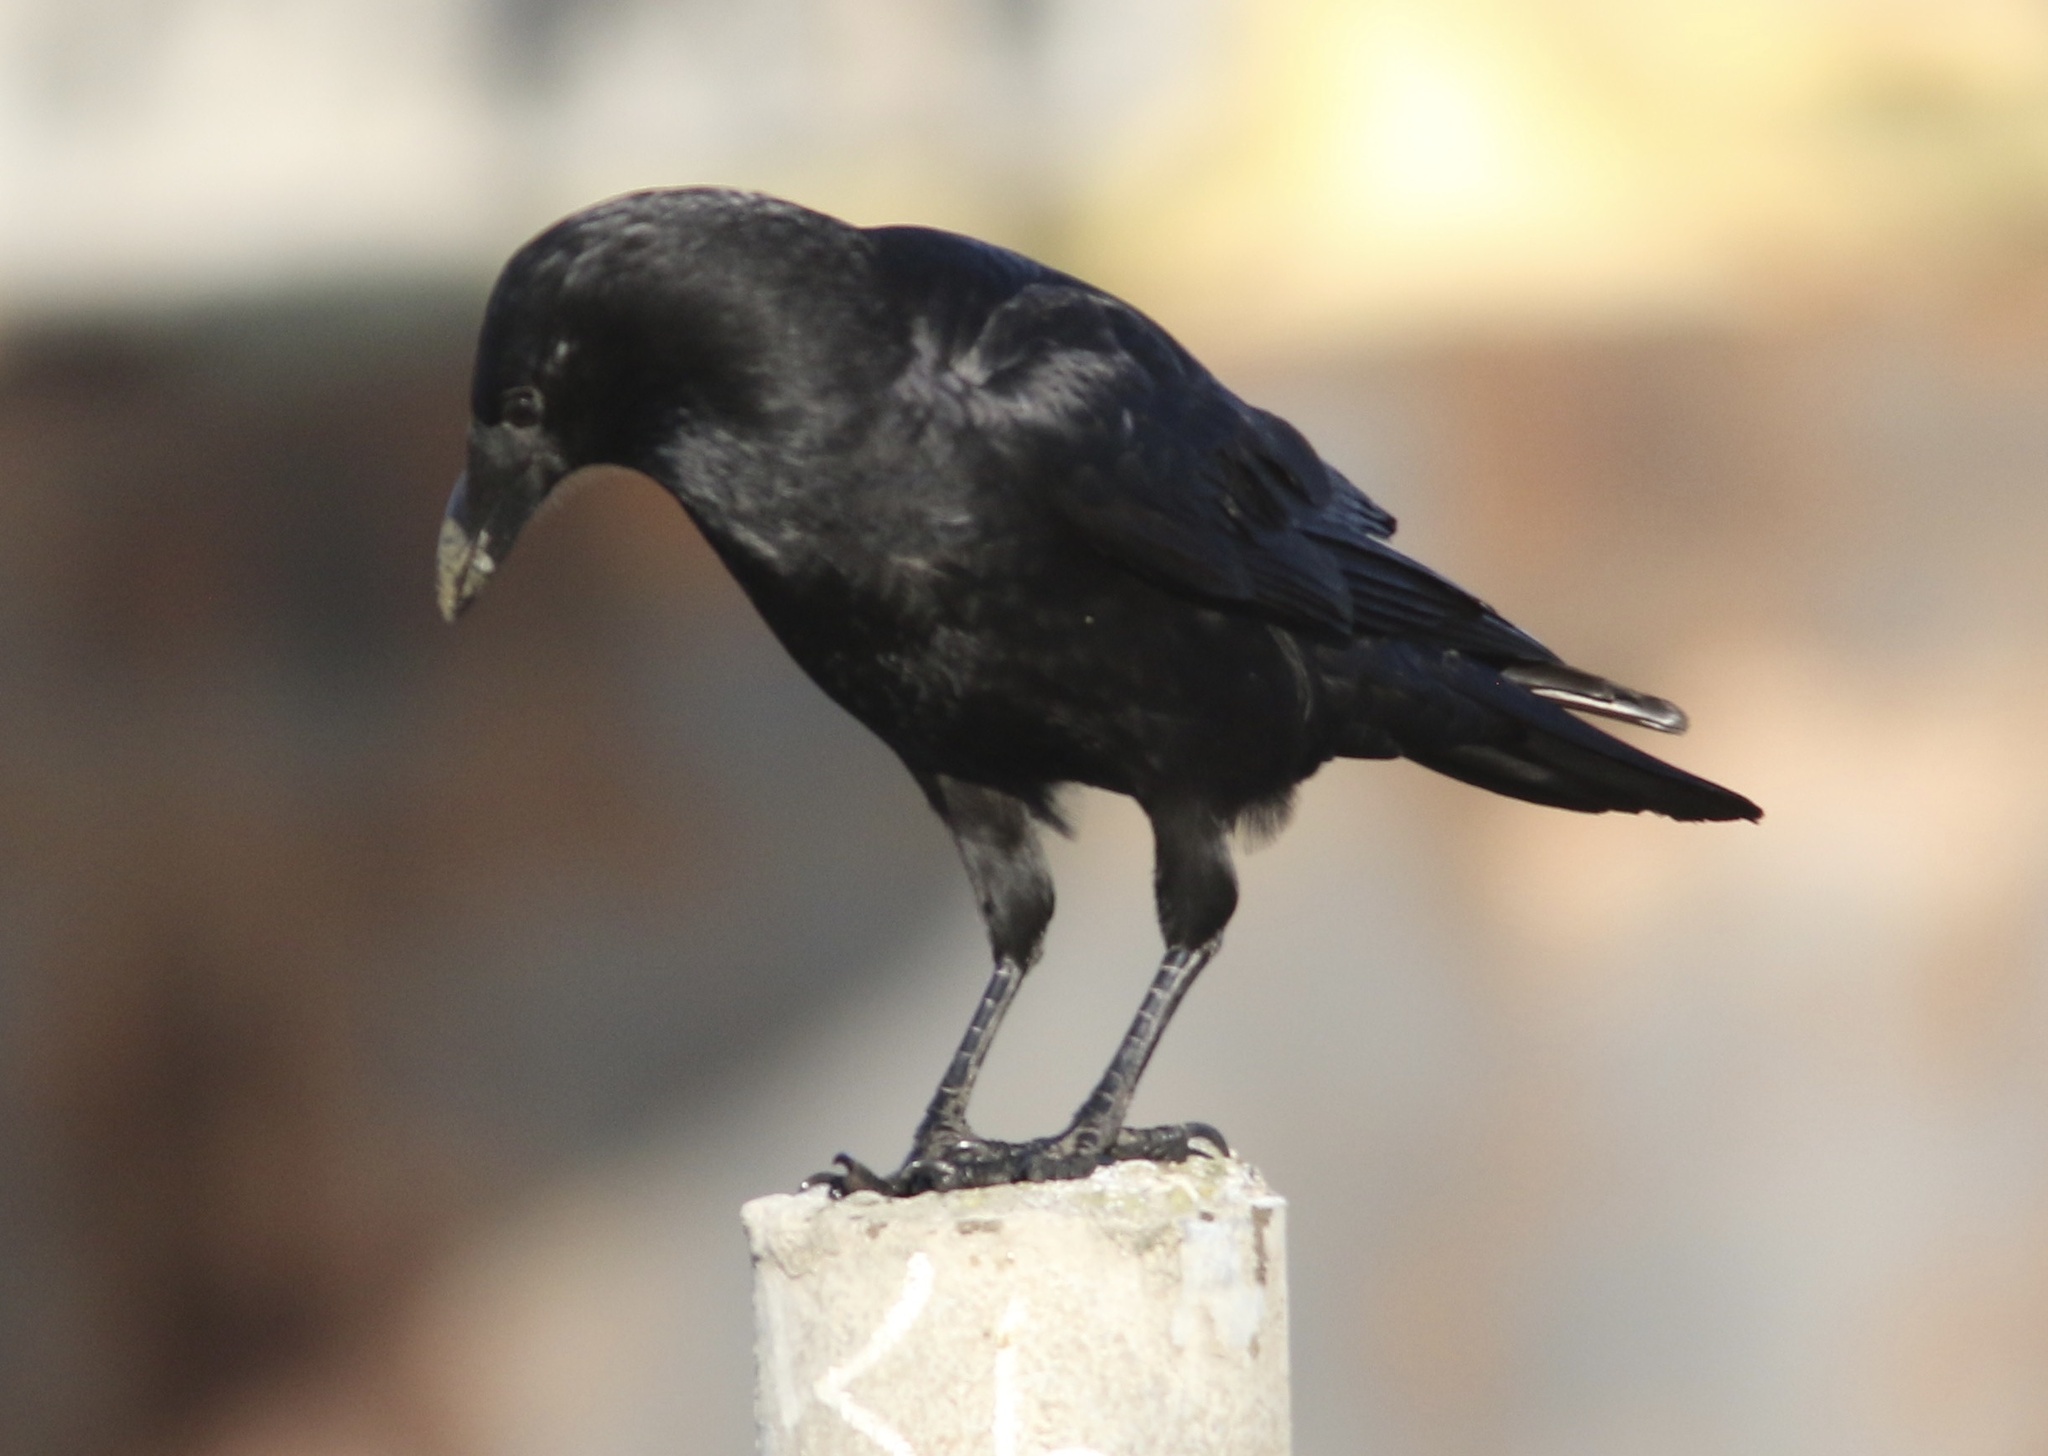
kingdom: Animalia
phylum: Chordata
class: Aves
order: Passeriformes
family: Corvidae
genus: Corvus
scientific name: Corvus brachyrhynchos
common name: American crow
